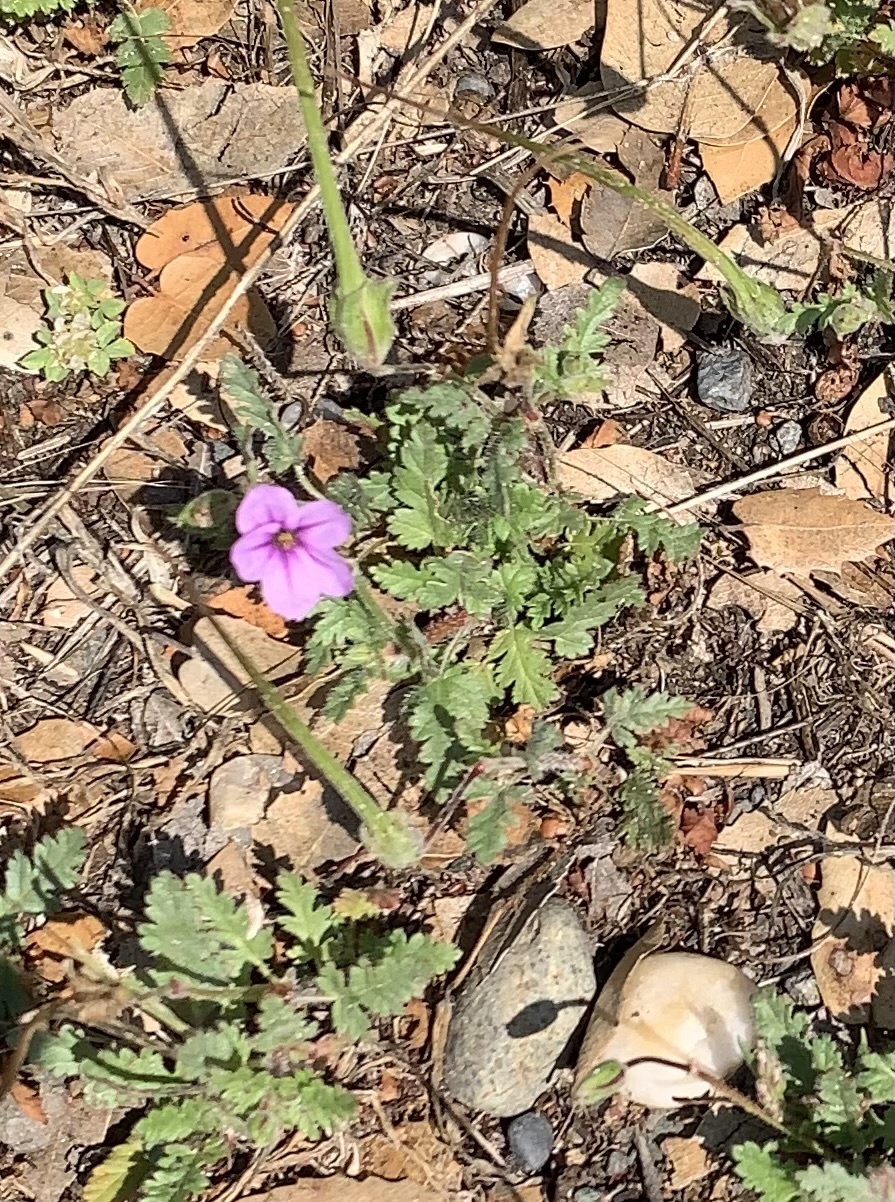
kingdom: Plantae
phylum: Tracheophyta
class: Magnoliopsida
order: Geraniales
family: Geraniaceae
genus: Erodium
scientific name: Erodium botrys
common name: Mediterranean stork's-bill
